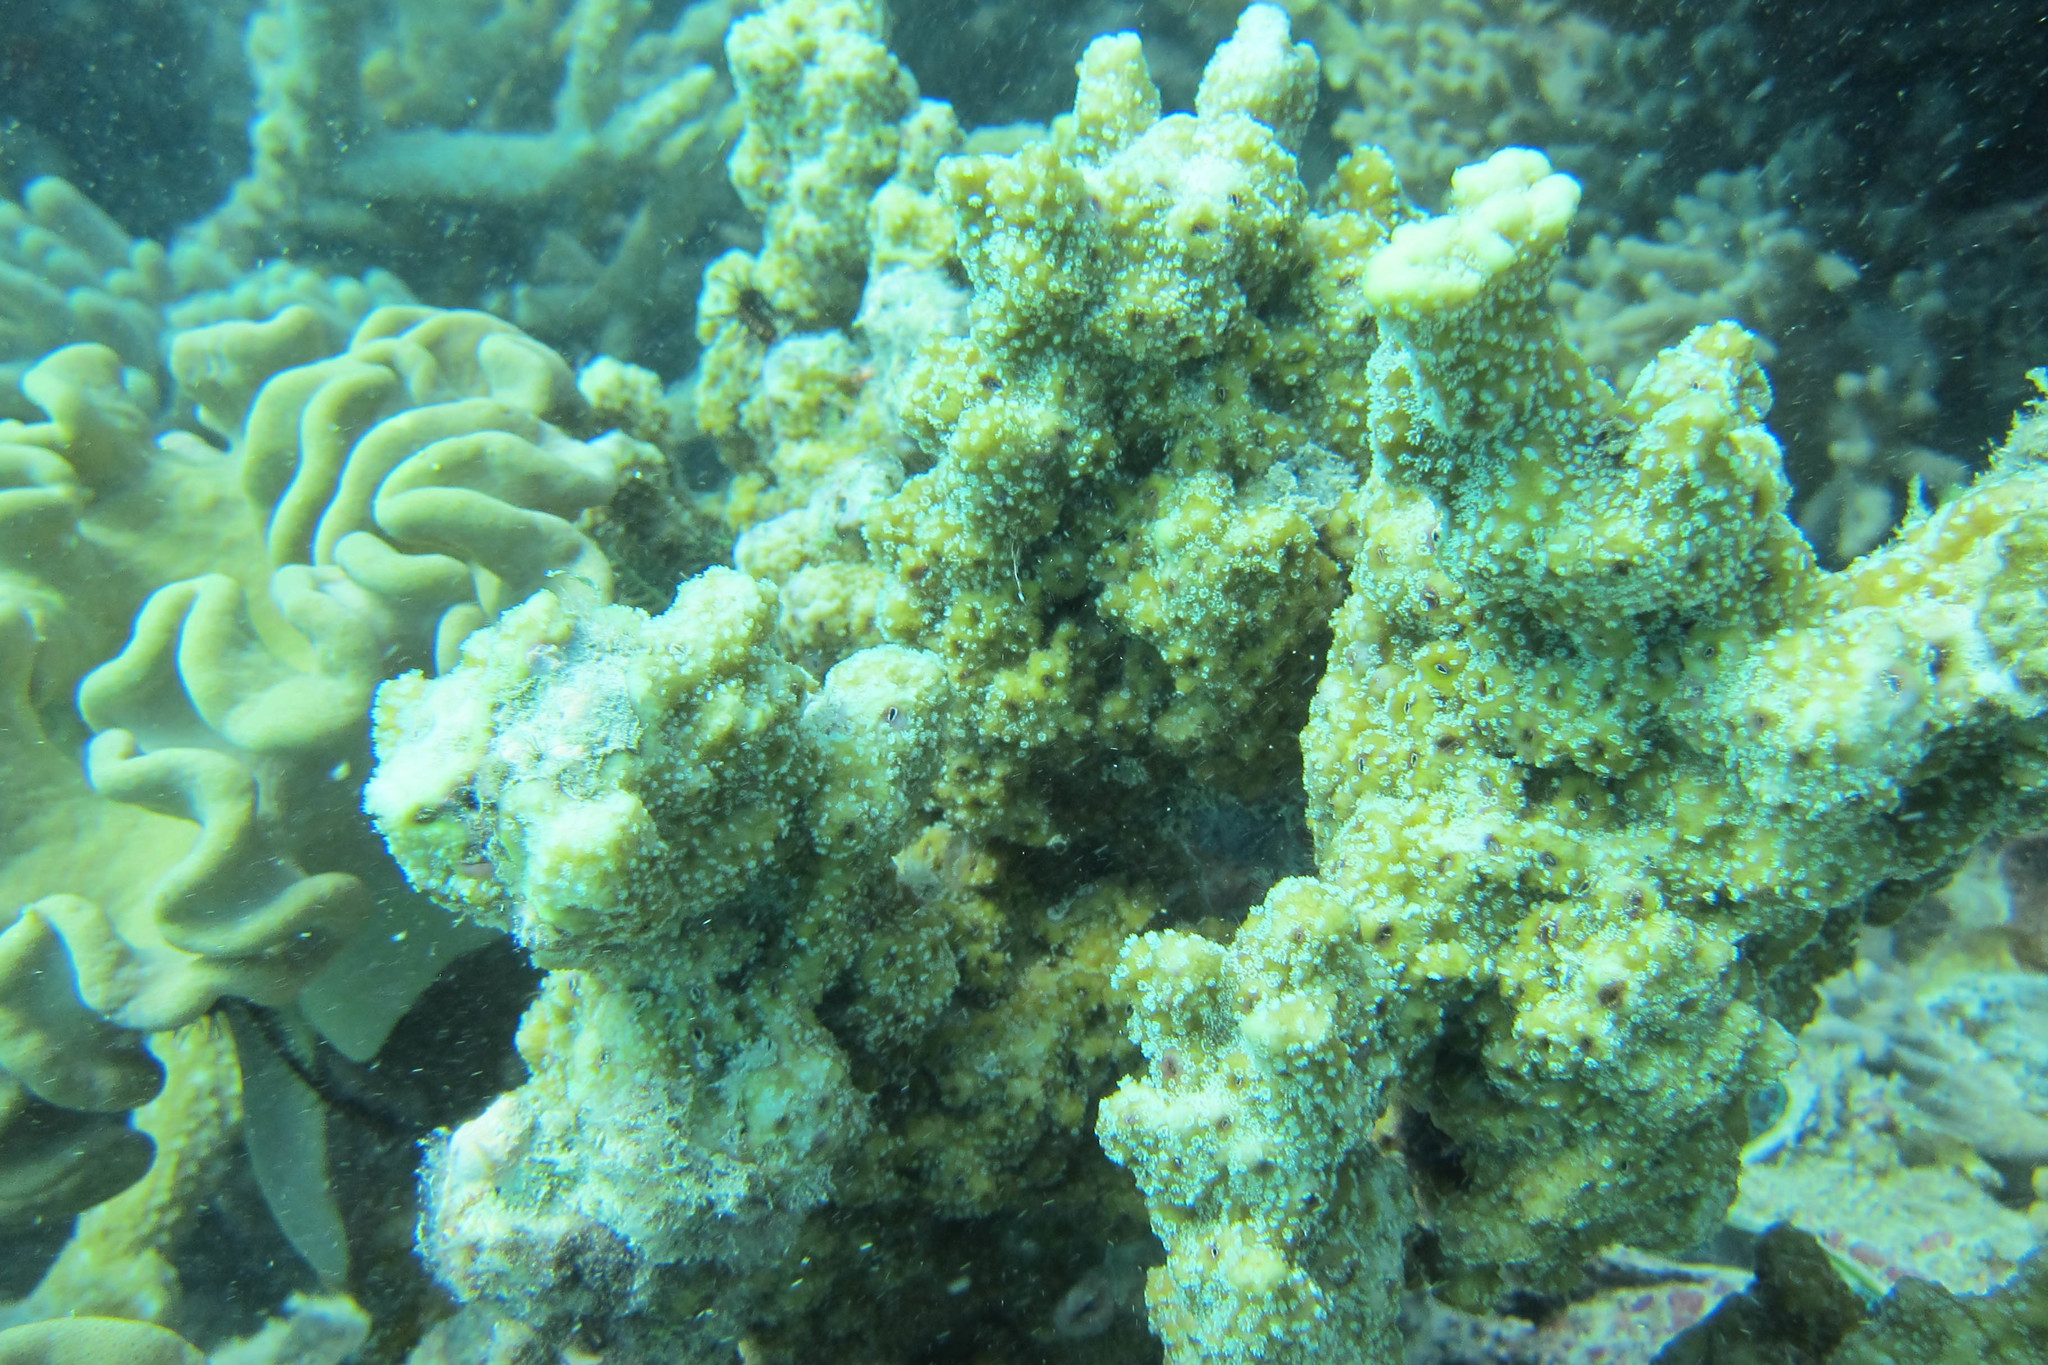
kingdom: Animalia
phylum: Cnidaria
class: Anthozoa
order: Scleractinia
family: Acroporidae
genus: Montipora
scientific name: Montipora hispida
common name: Pore coral
